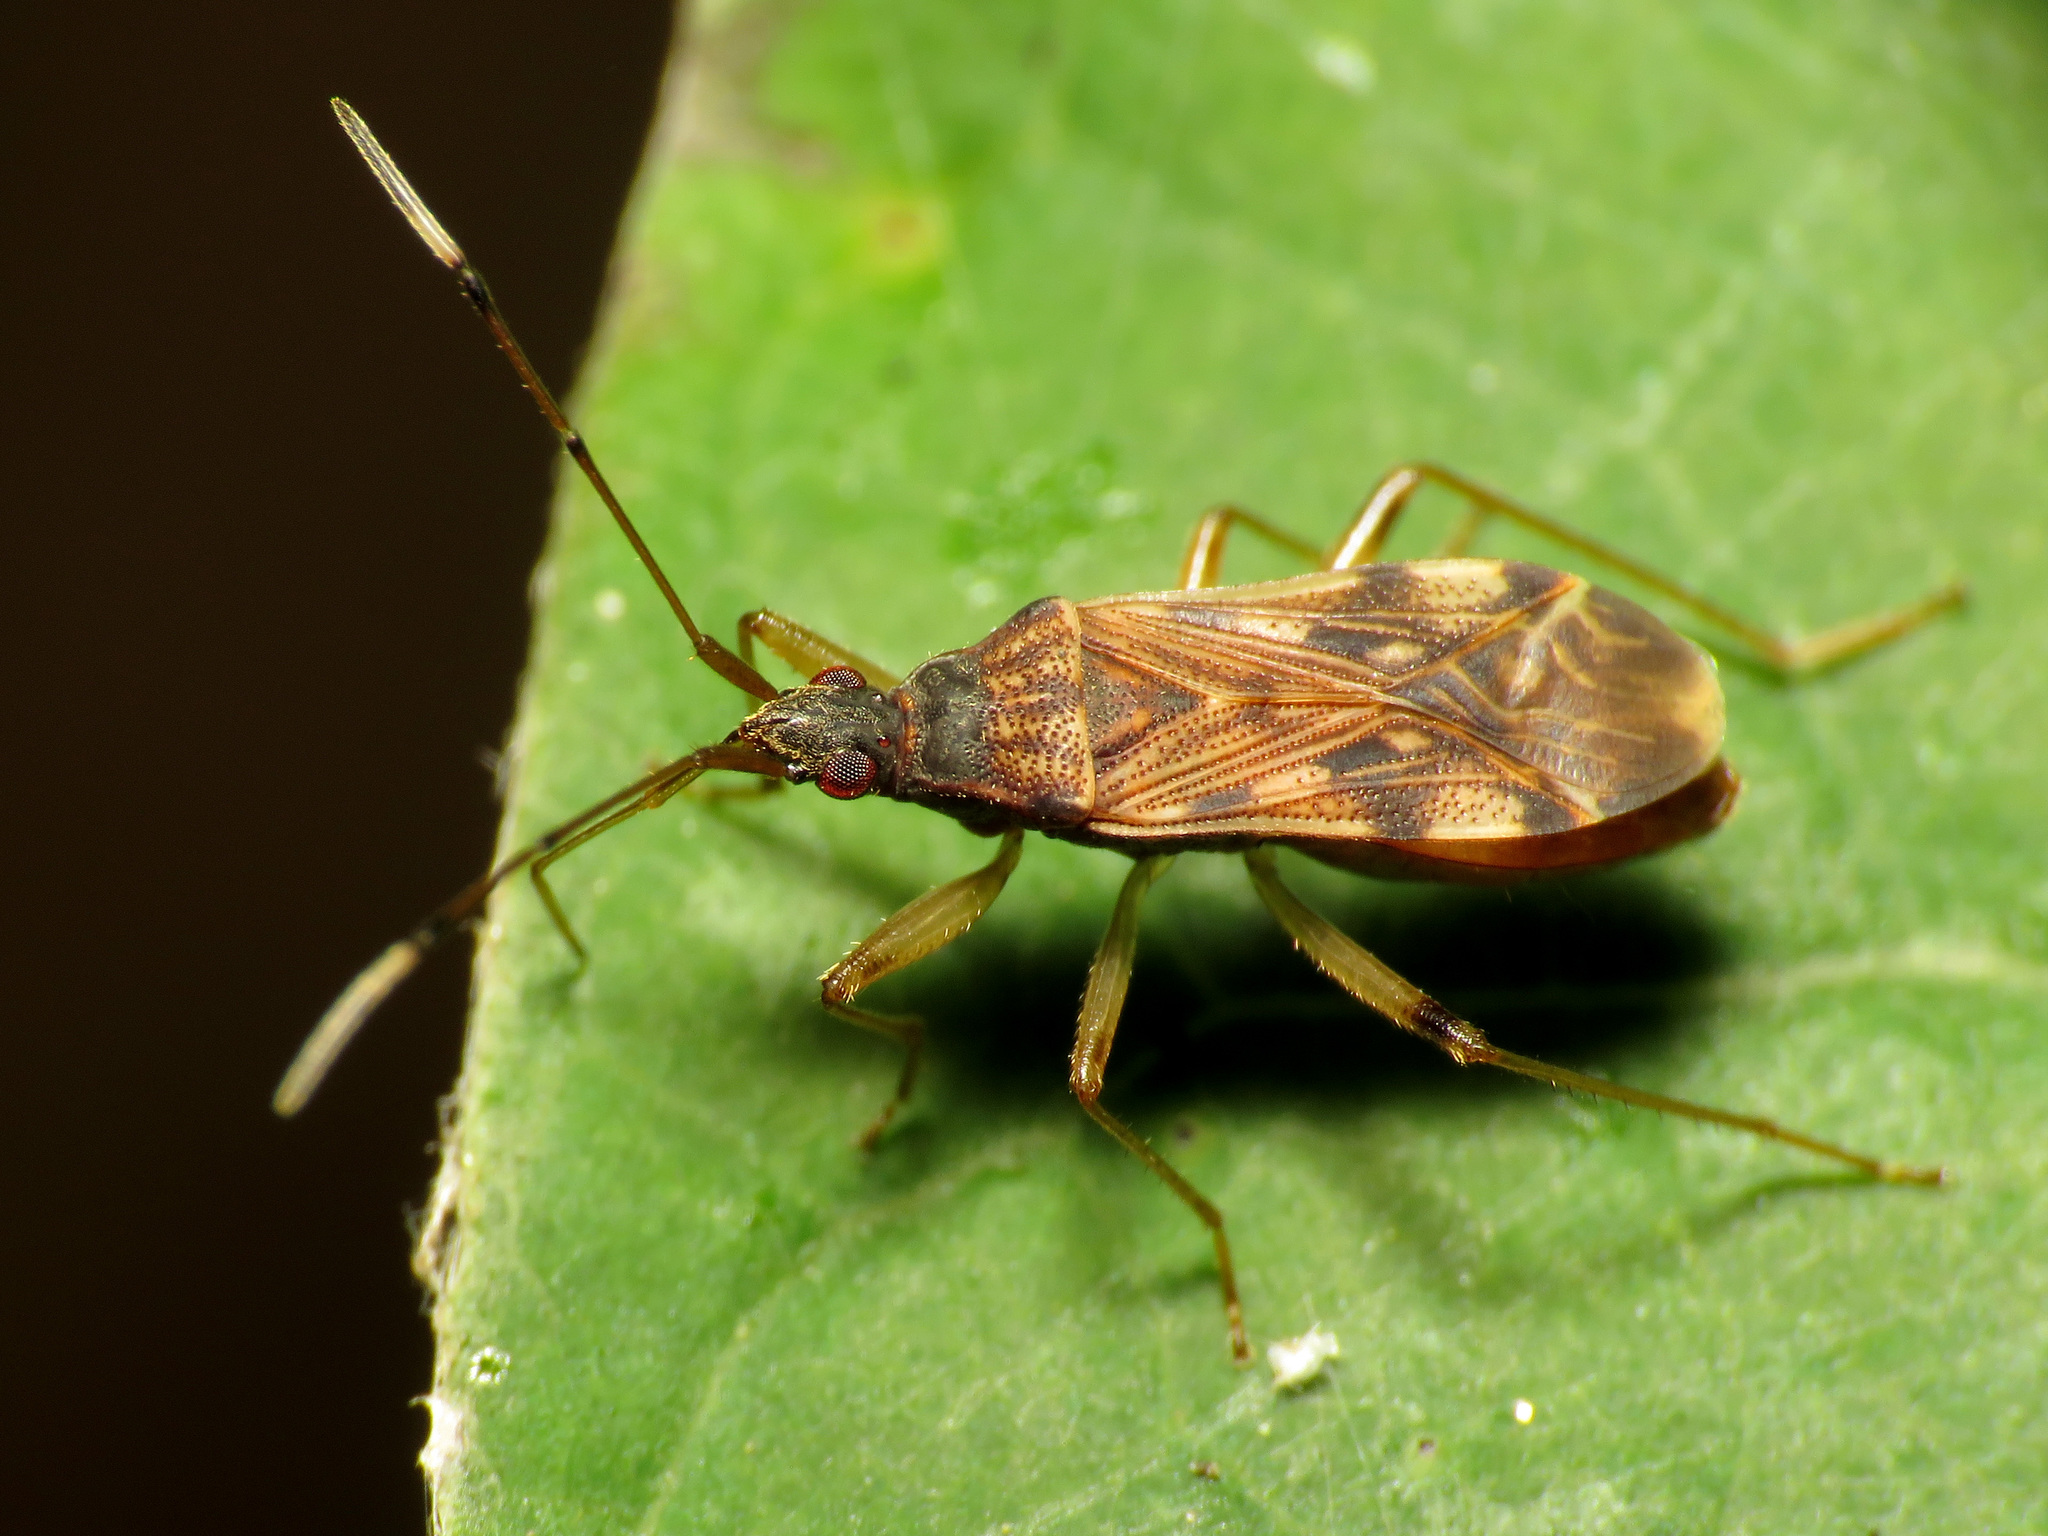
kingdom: Animalia
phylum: Arthropoda
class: Insecta
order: Hemiptera
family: Rhyparochromidae
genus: Ozophora
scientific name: Ozophora picturata
